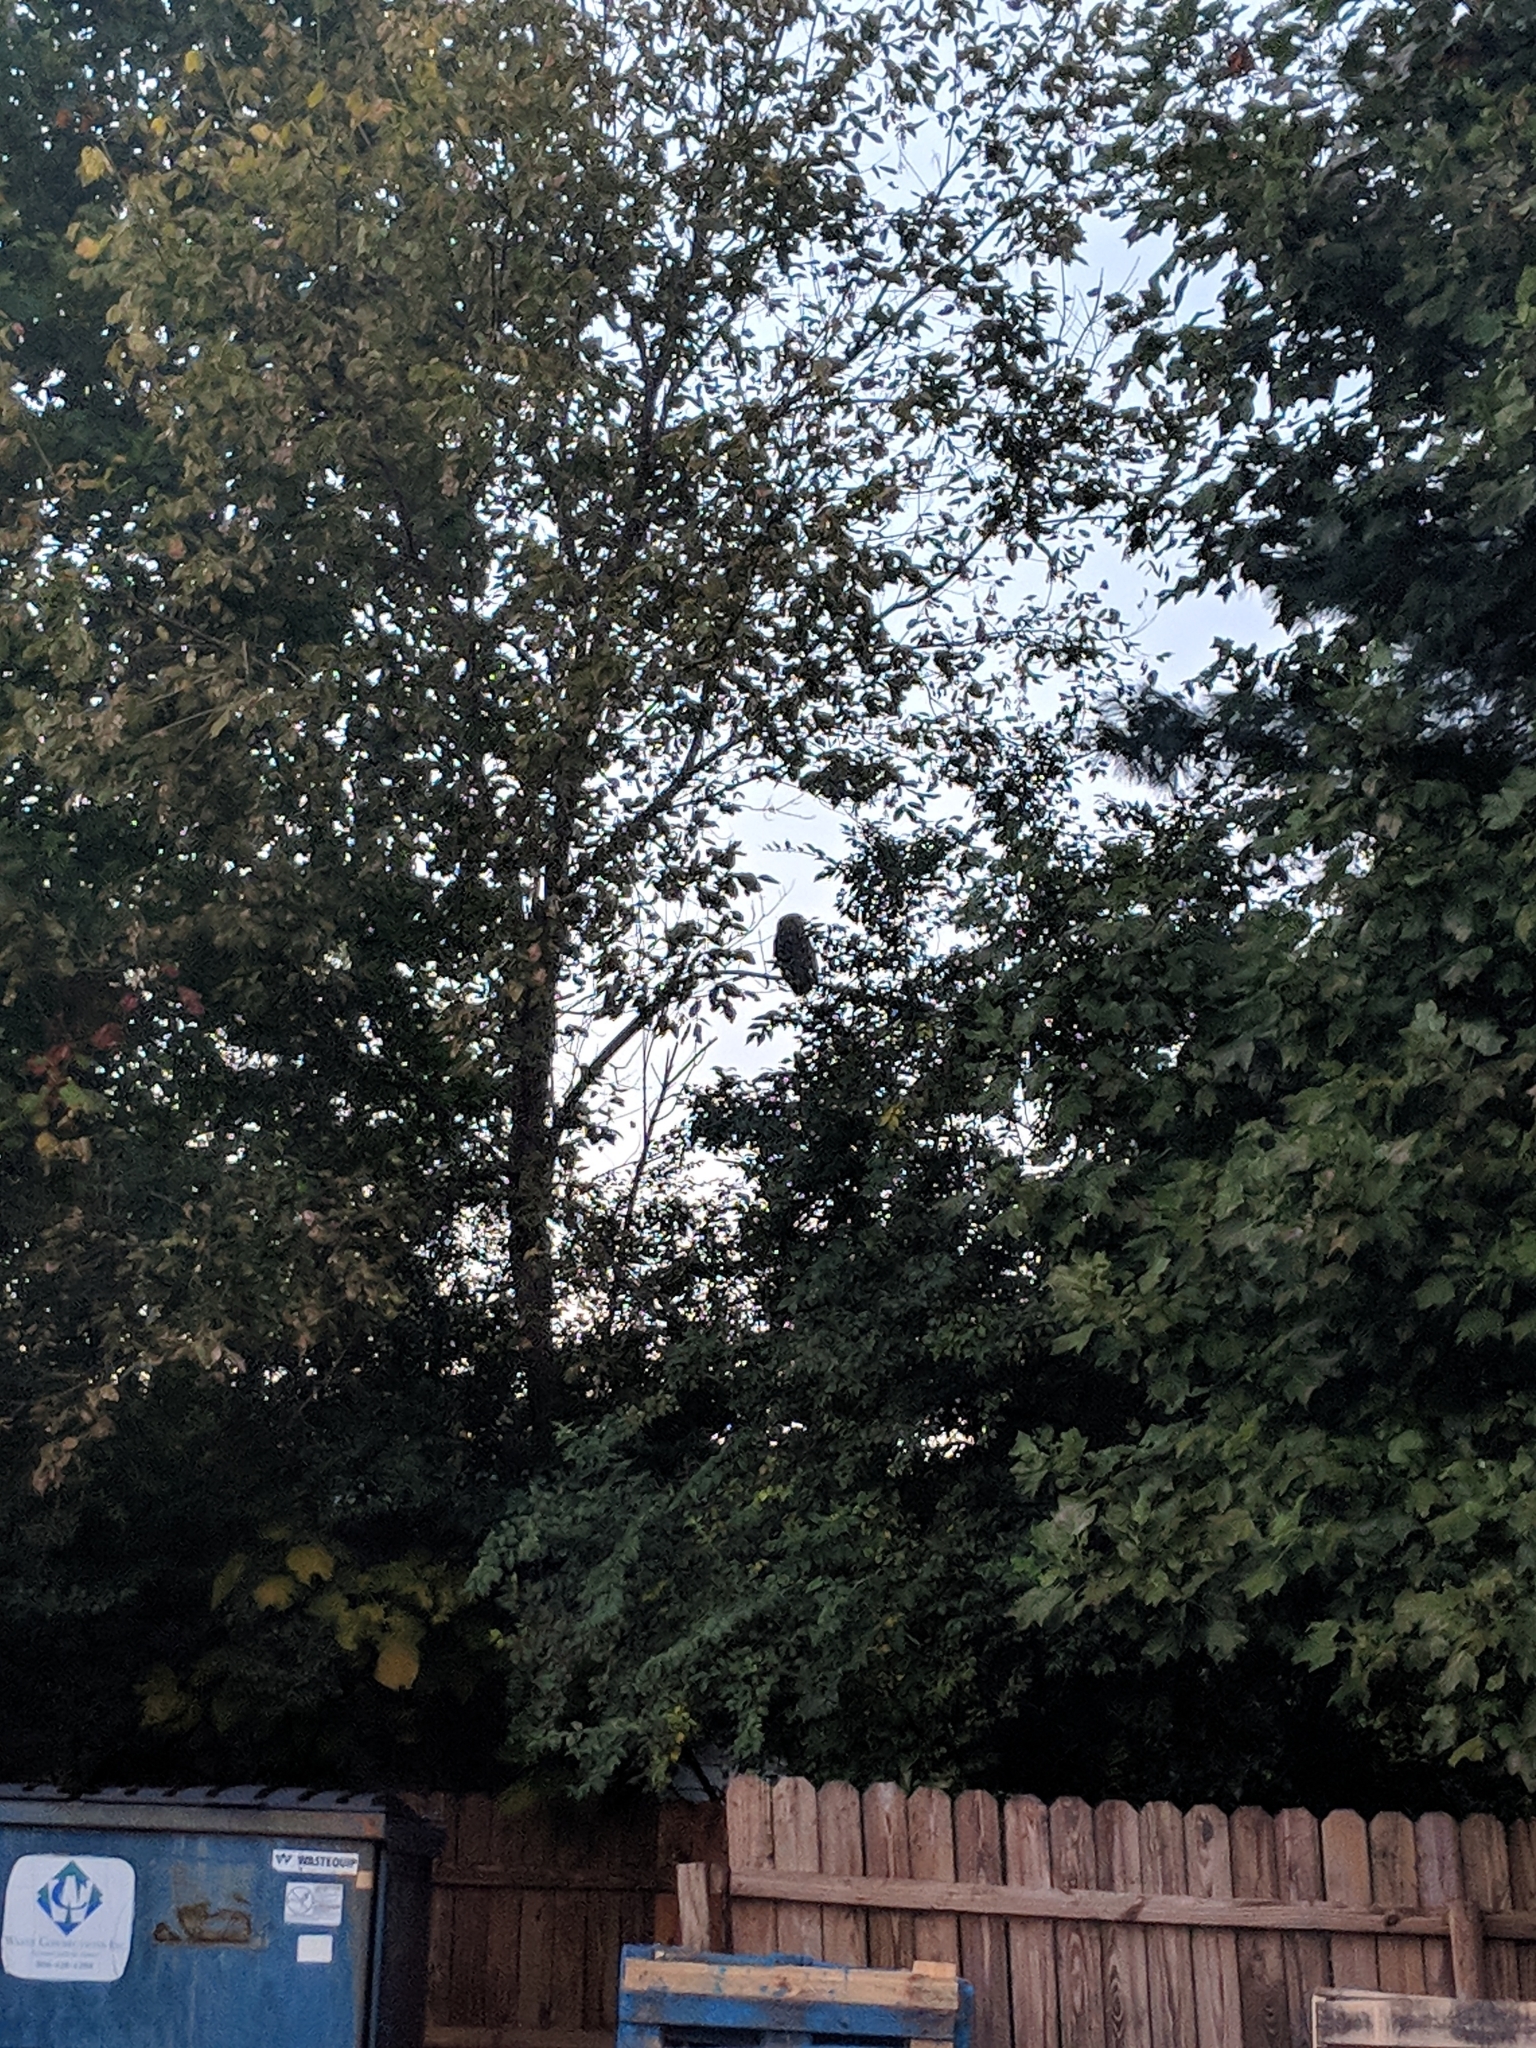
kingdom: Animalia
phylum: Chordata
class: Aves
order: Strigiformes
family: Strigidae
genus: Strix
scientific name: Strix varia
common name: Barred owl
